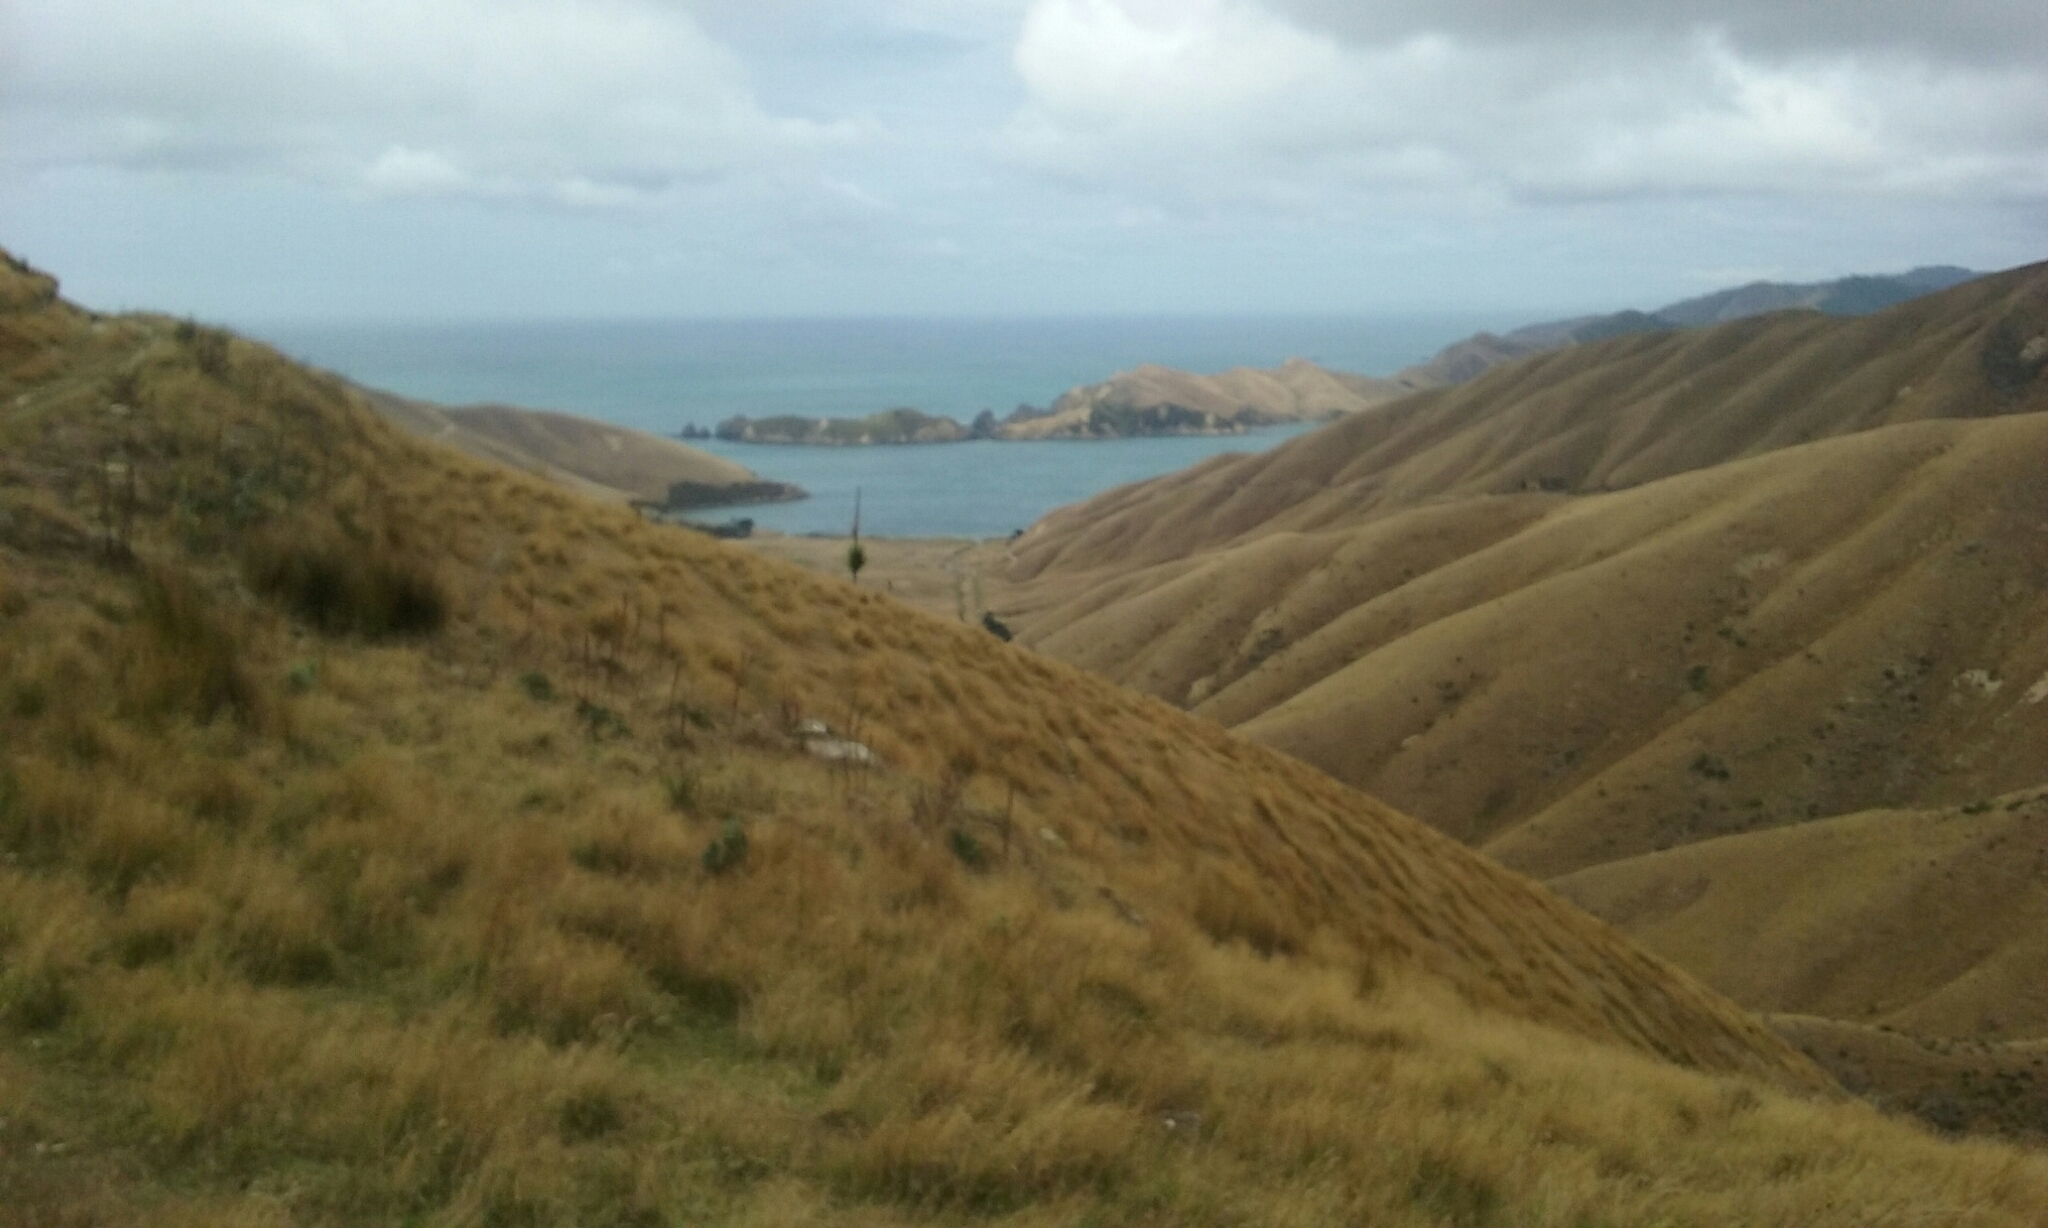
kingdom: Plantae
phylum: Tracheophyta
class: Liliopsida
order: Asparagales
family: Asparagaceae
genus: Cordyline
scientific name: Cordyline australis
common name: Cabbage-palm
